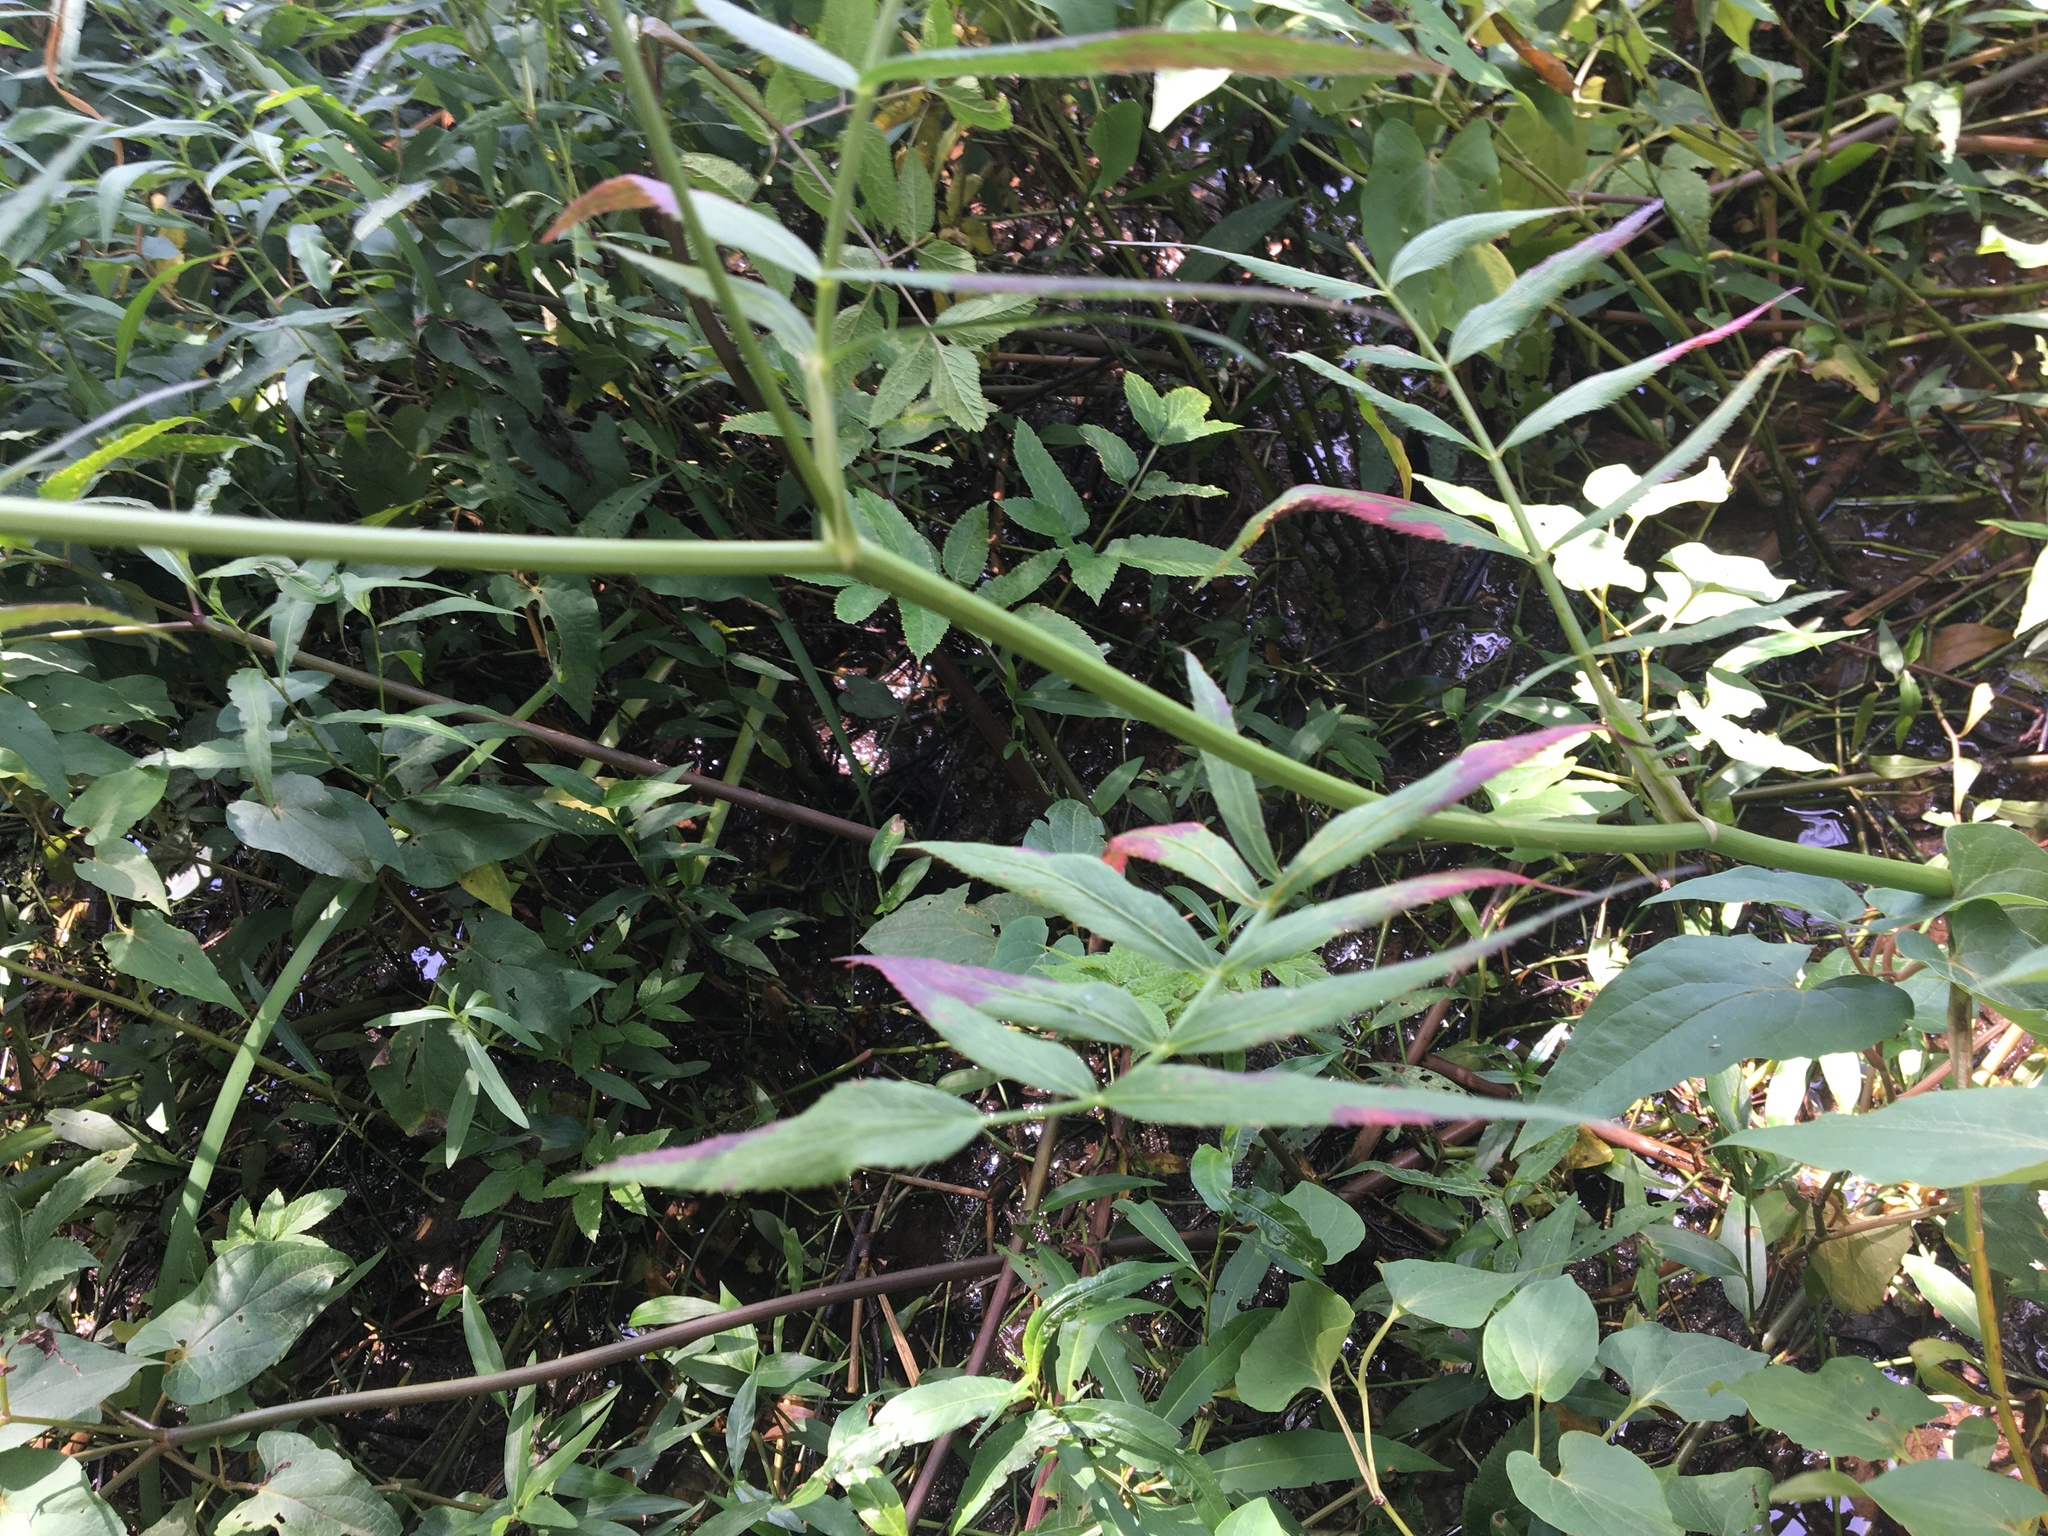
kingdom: Plantae
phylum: Tracheophyta
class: Magnoliopsida
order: Apiales
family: Apiaceae
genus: Sium
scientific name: Sium suave
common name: Hemlock water-parsnip
